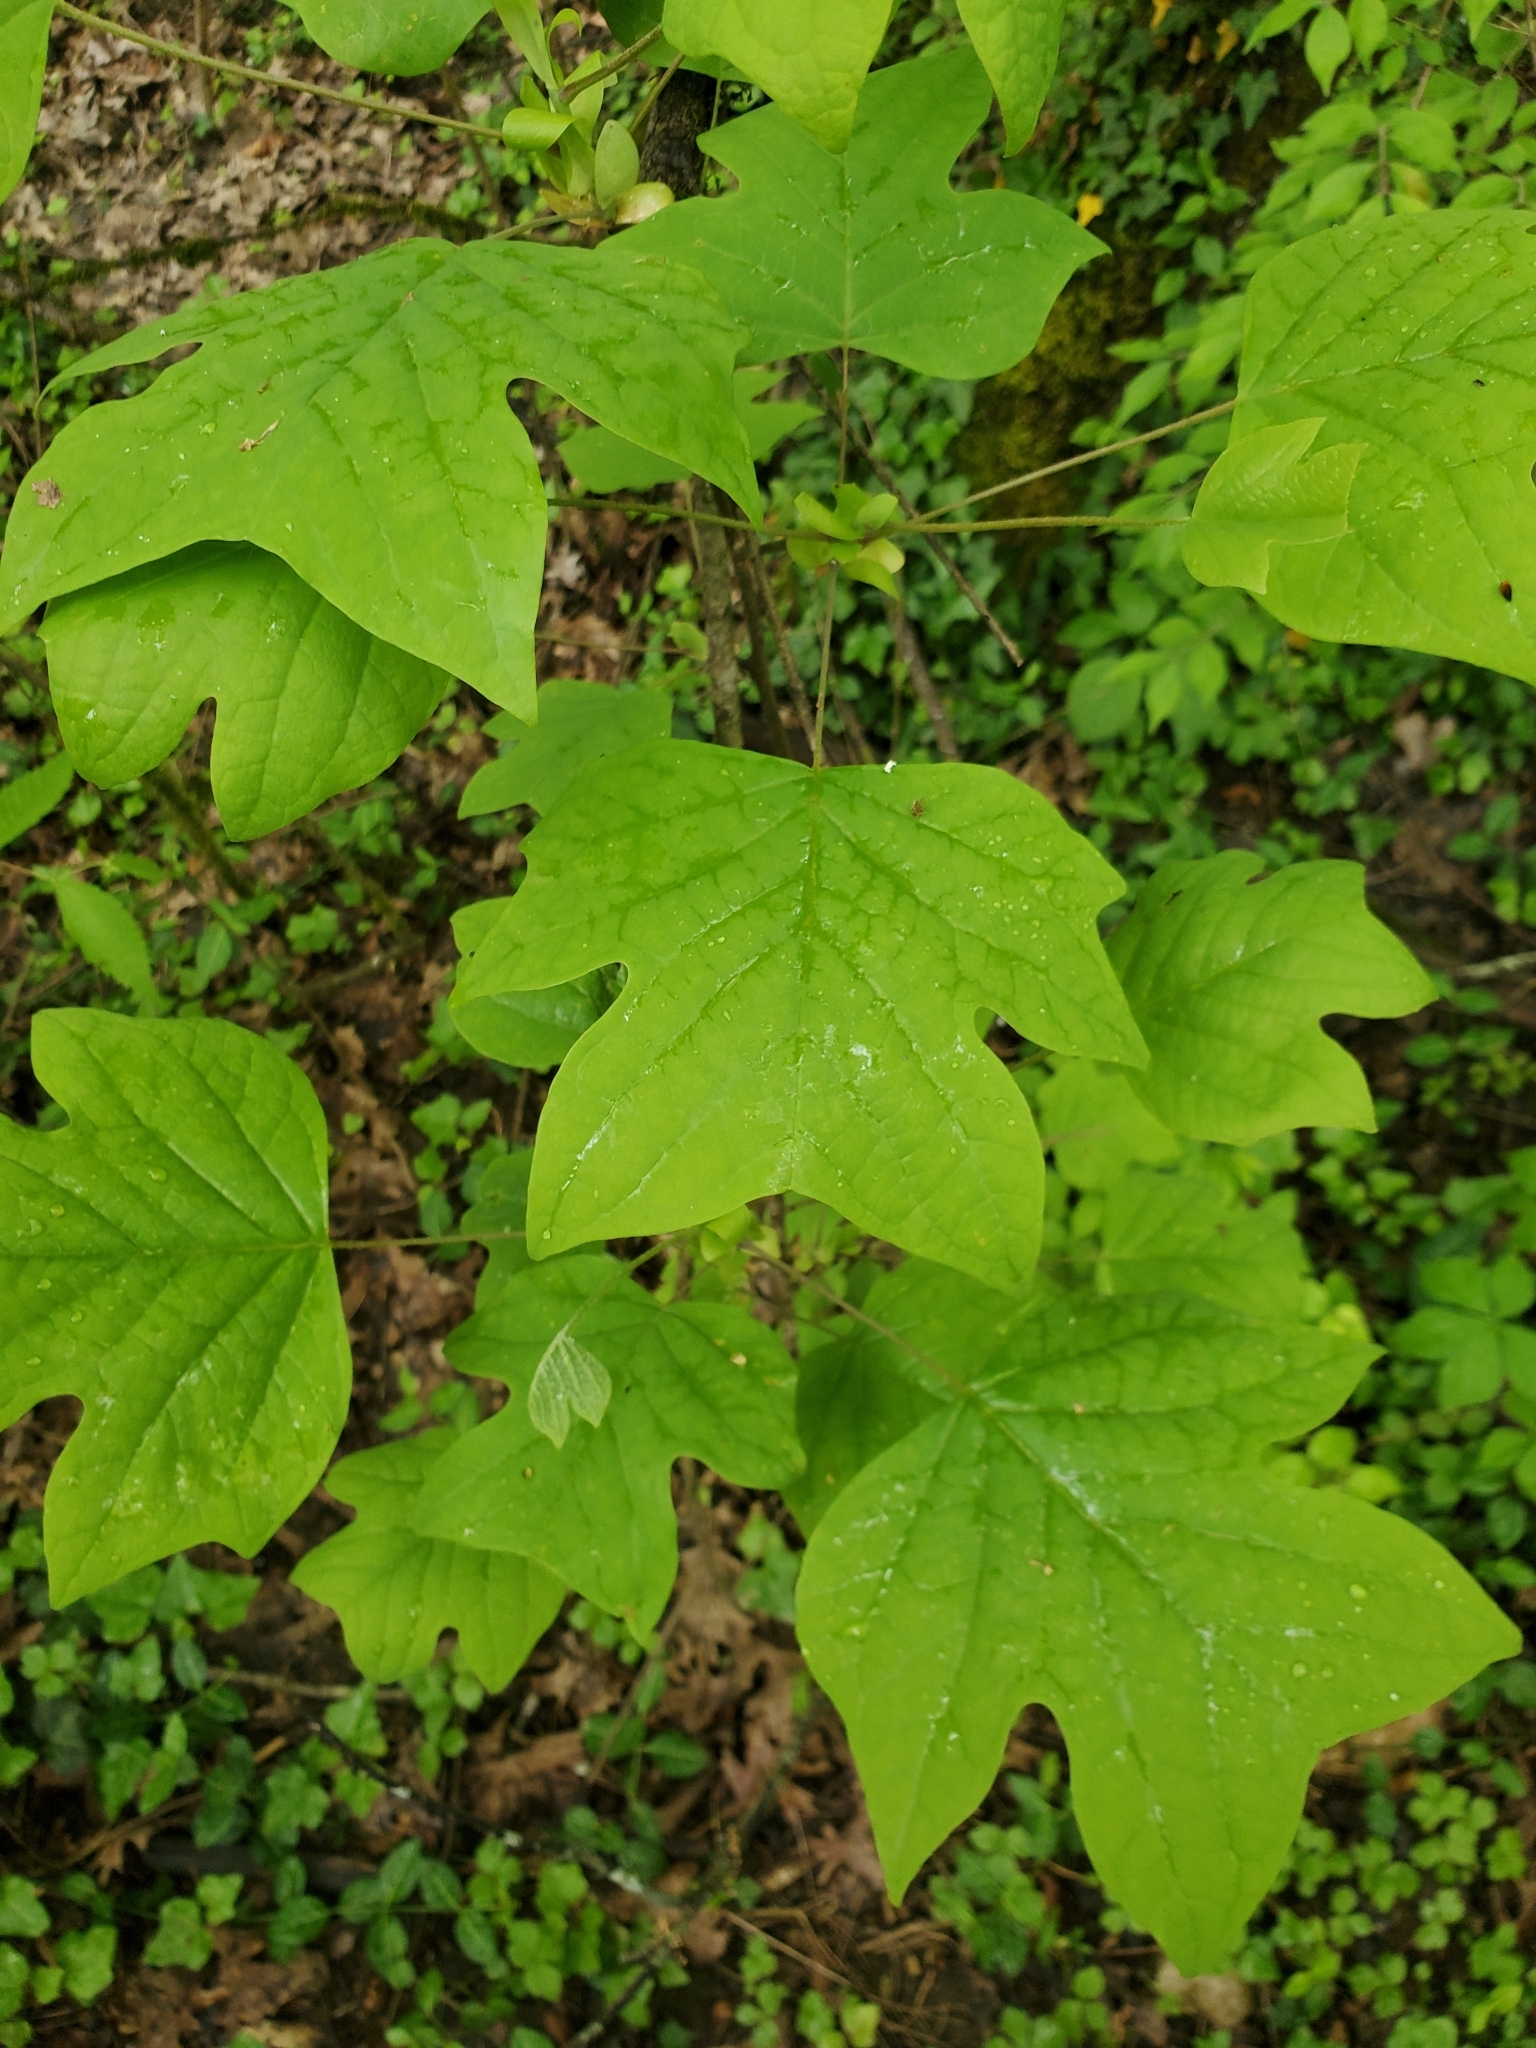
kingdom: Plantae
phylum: Tracheophyta
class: Magnoliopsida
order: Magnoliales
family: Magnoliaceae
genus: Liriodendron
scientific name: Liriodendron tulipifera
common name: Tulip tree
